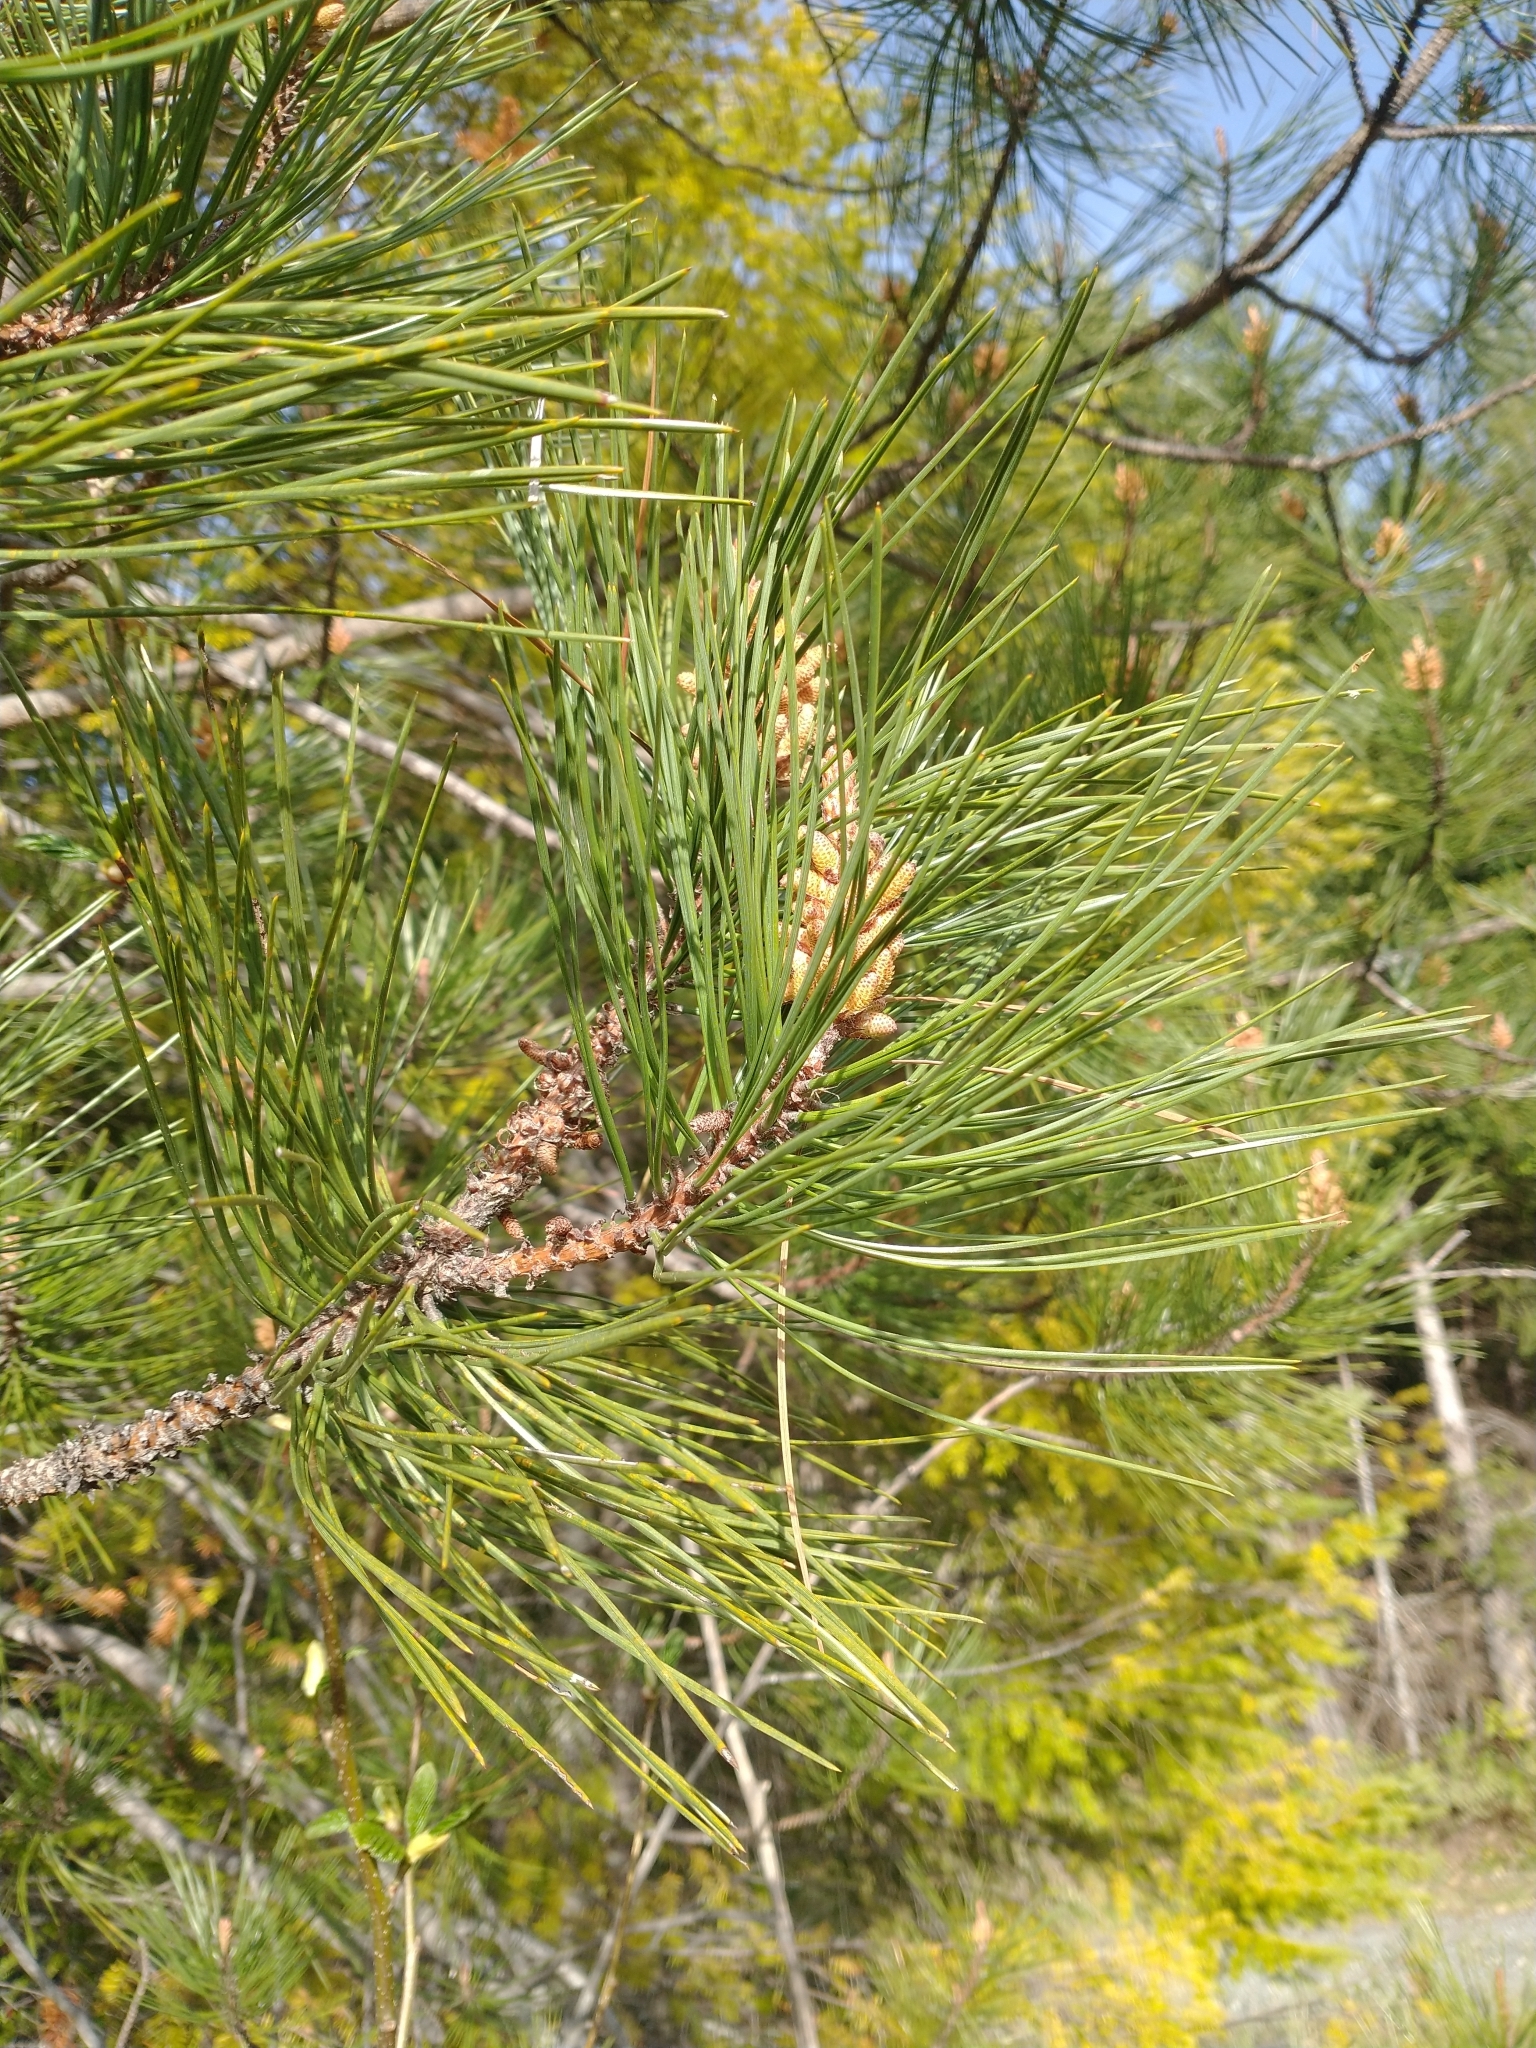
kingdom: Plantae
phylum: Tracheophyta
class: Pinopsida
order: Pinales
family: Pinaceae
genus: Pinus
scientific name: Pinus attenuata
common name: Knobcone pine
